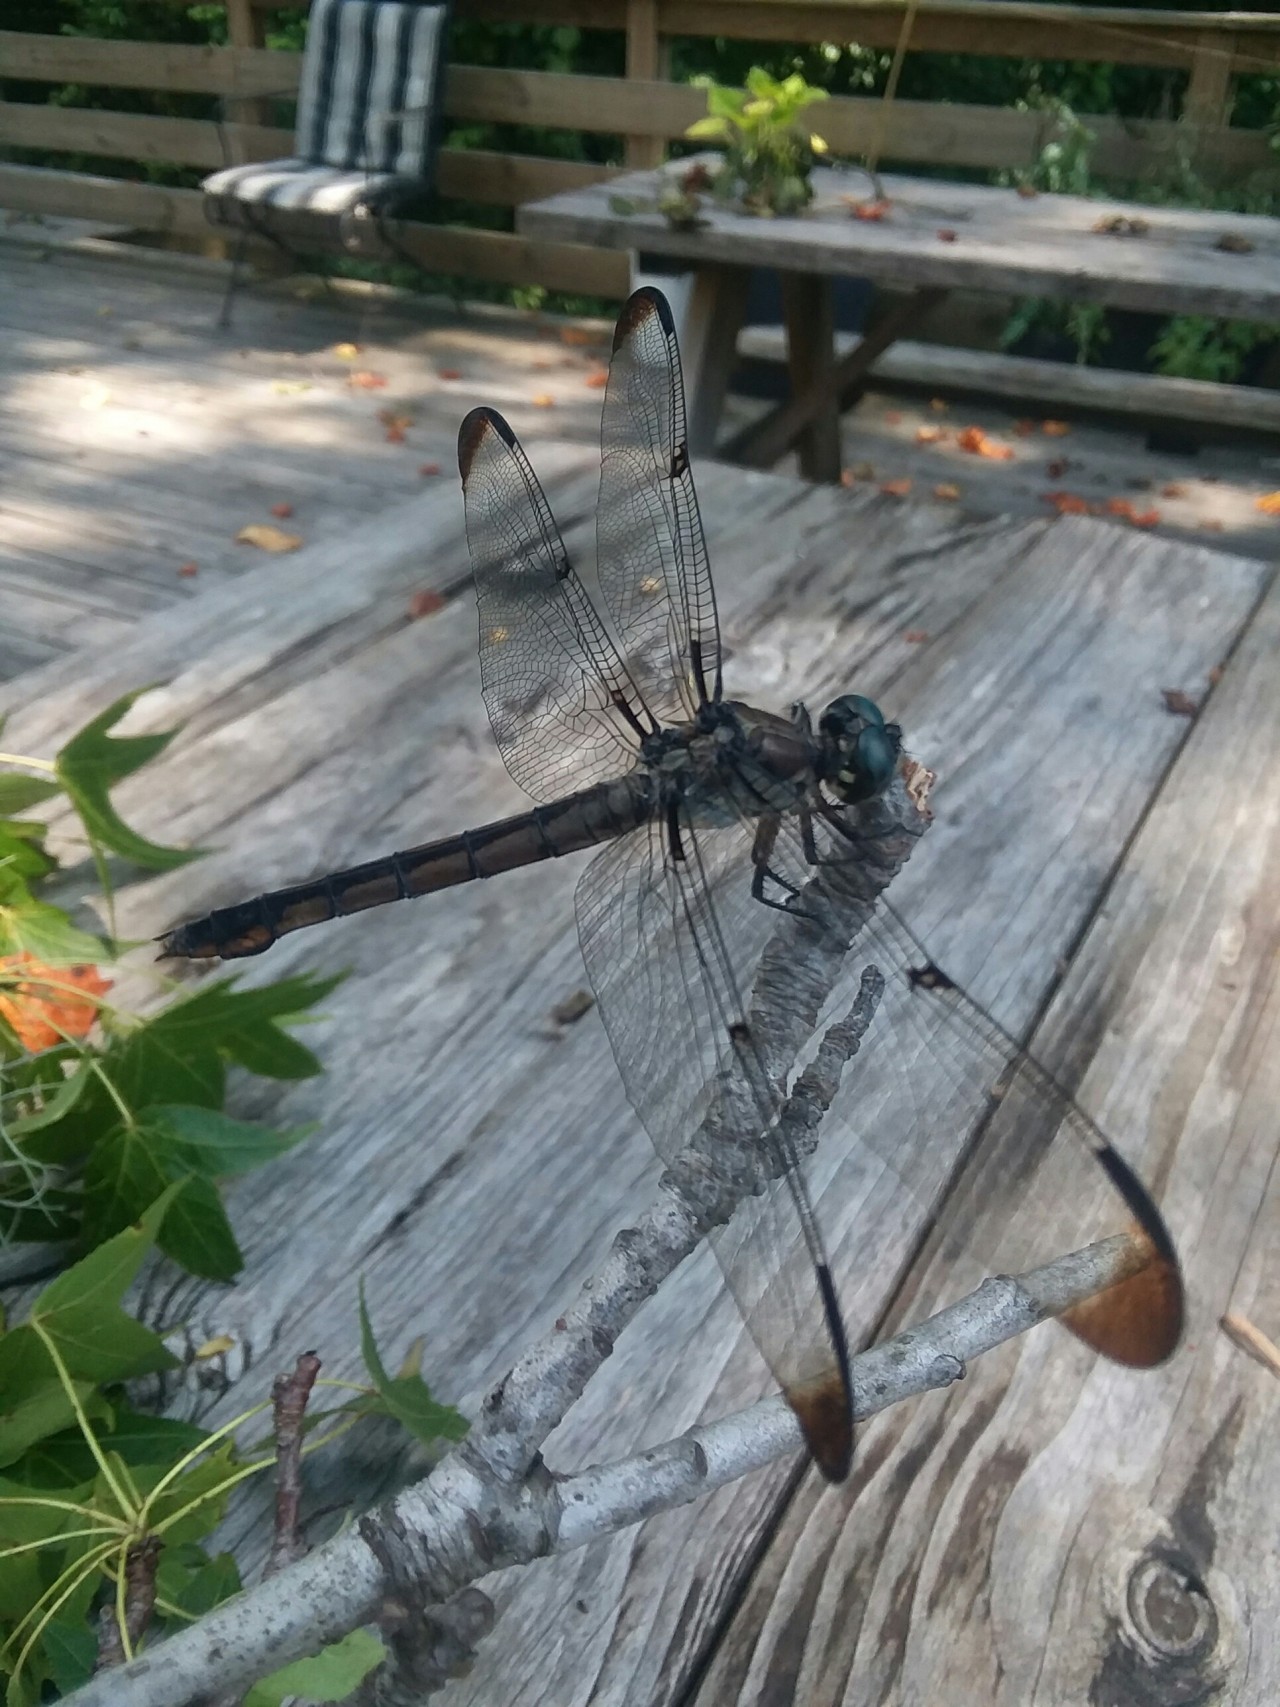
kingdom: Animalia
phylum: Arthropoda
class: Insecta
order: Odonata
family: Libellulidae
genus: Libellula
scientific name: Libellula vibrans
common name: Great blue skimmer
